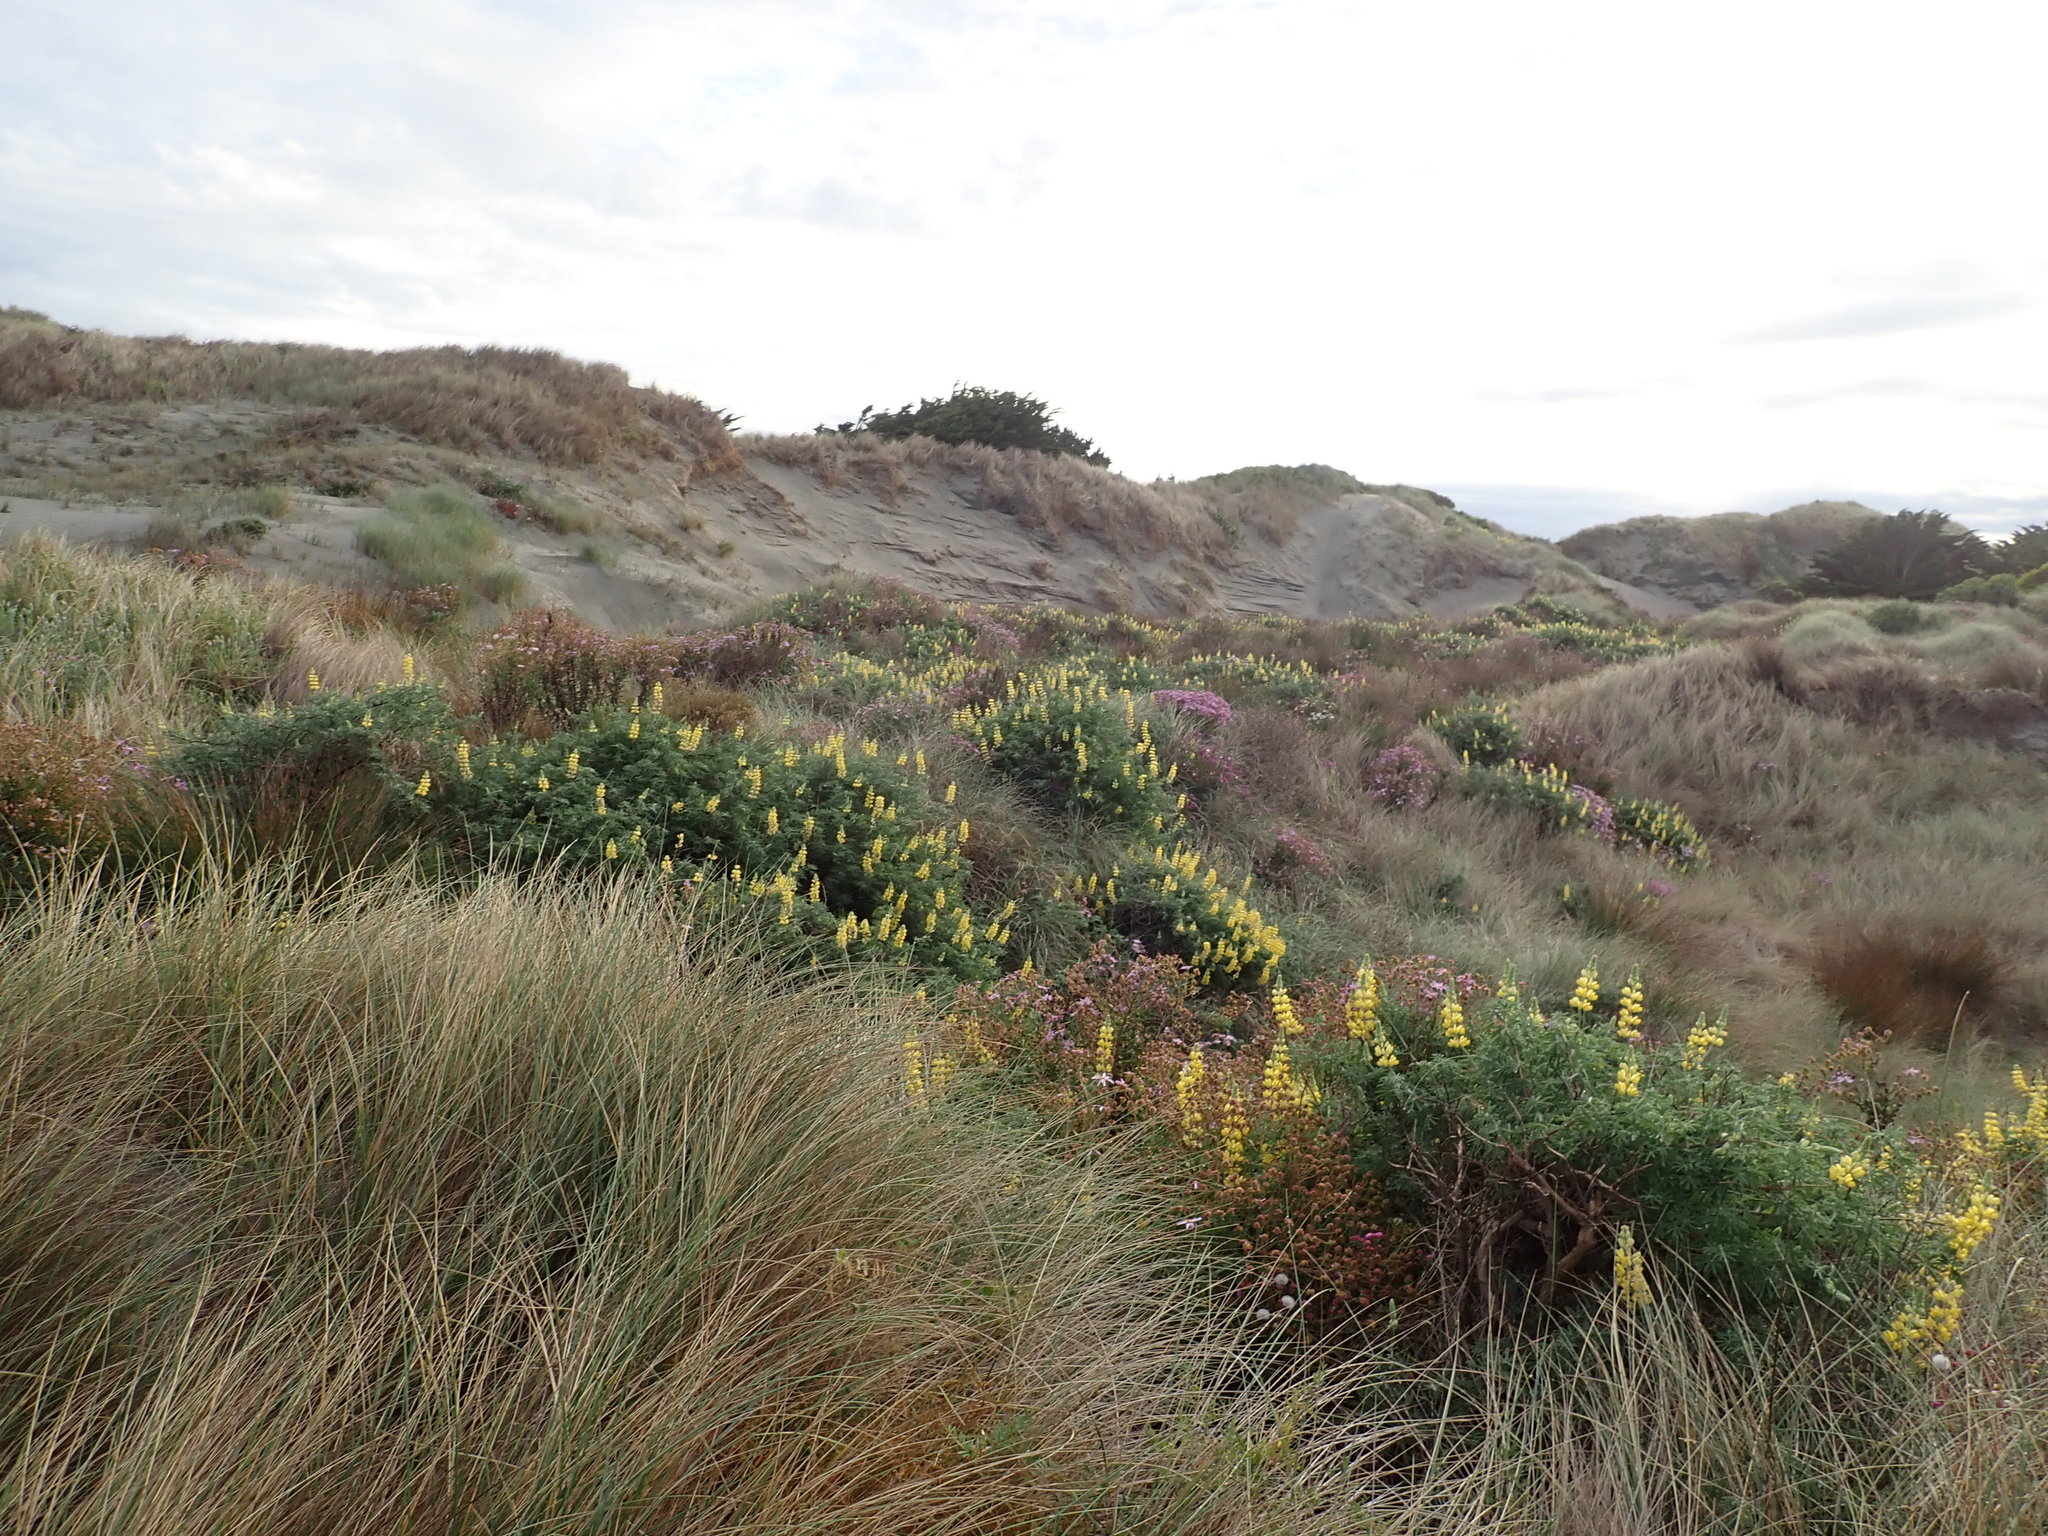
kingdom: Plantae
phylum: Tracheophyta
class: Magnoliopsida
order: Fabales
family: Fabaceae
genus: Lupinus
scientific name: Lupinus arboreus
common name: Yellow bush lupine
